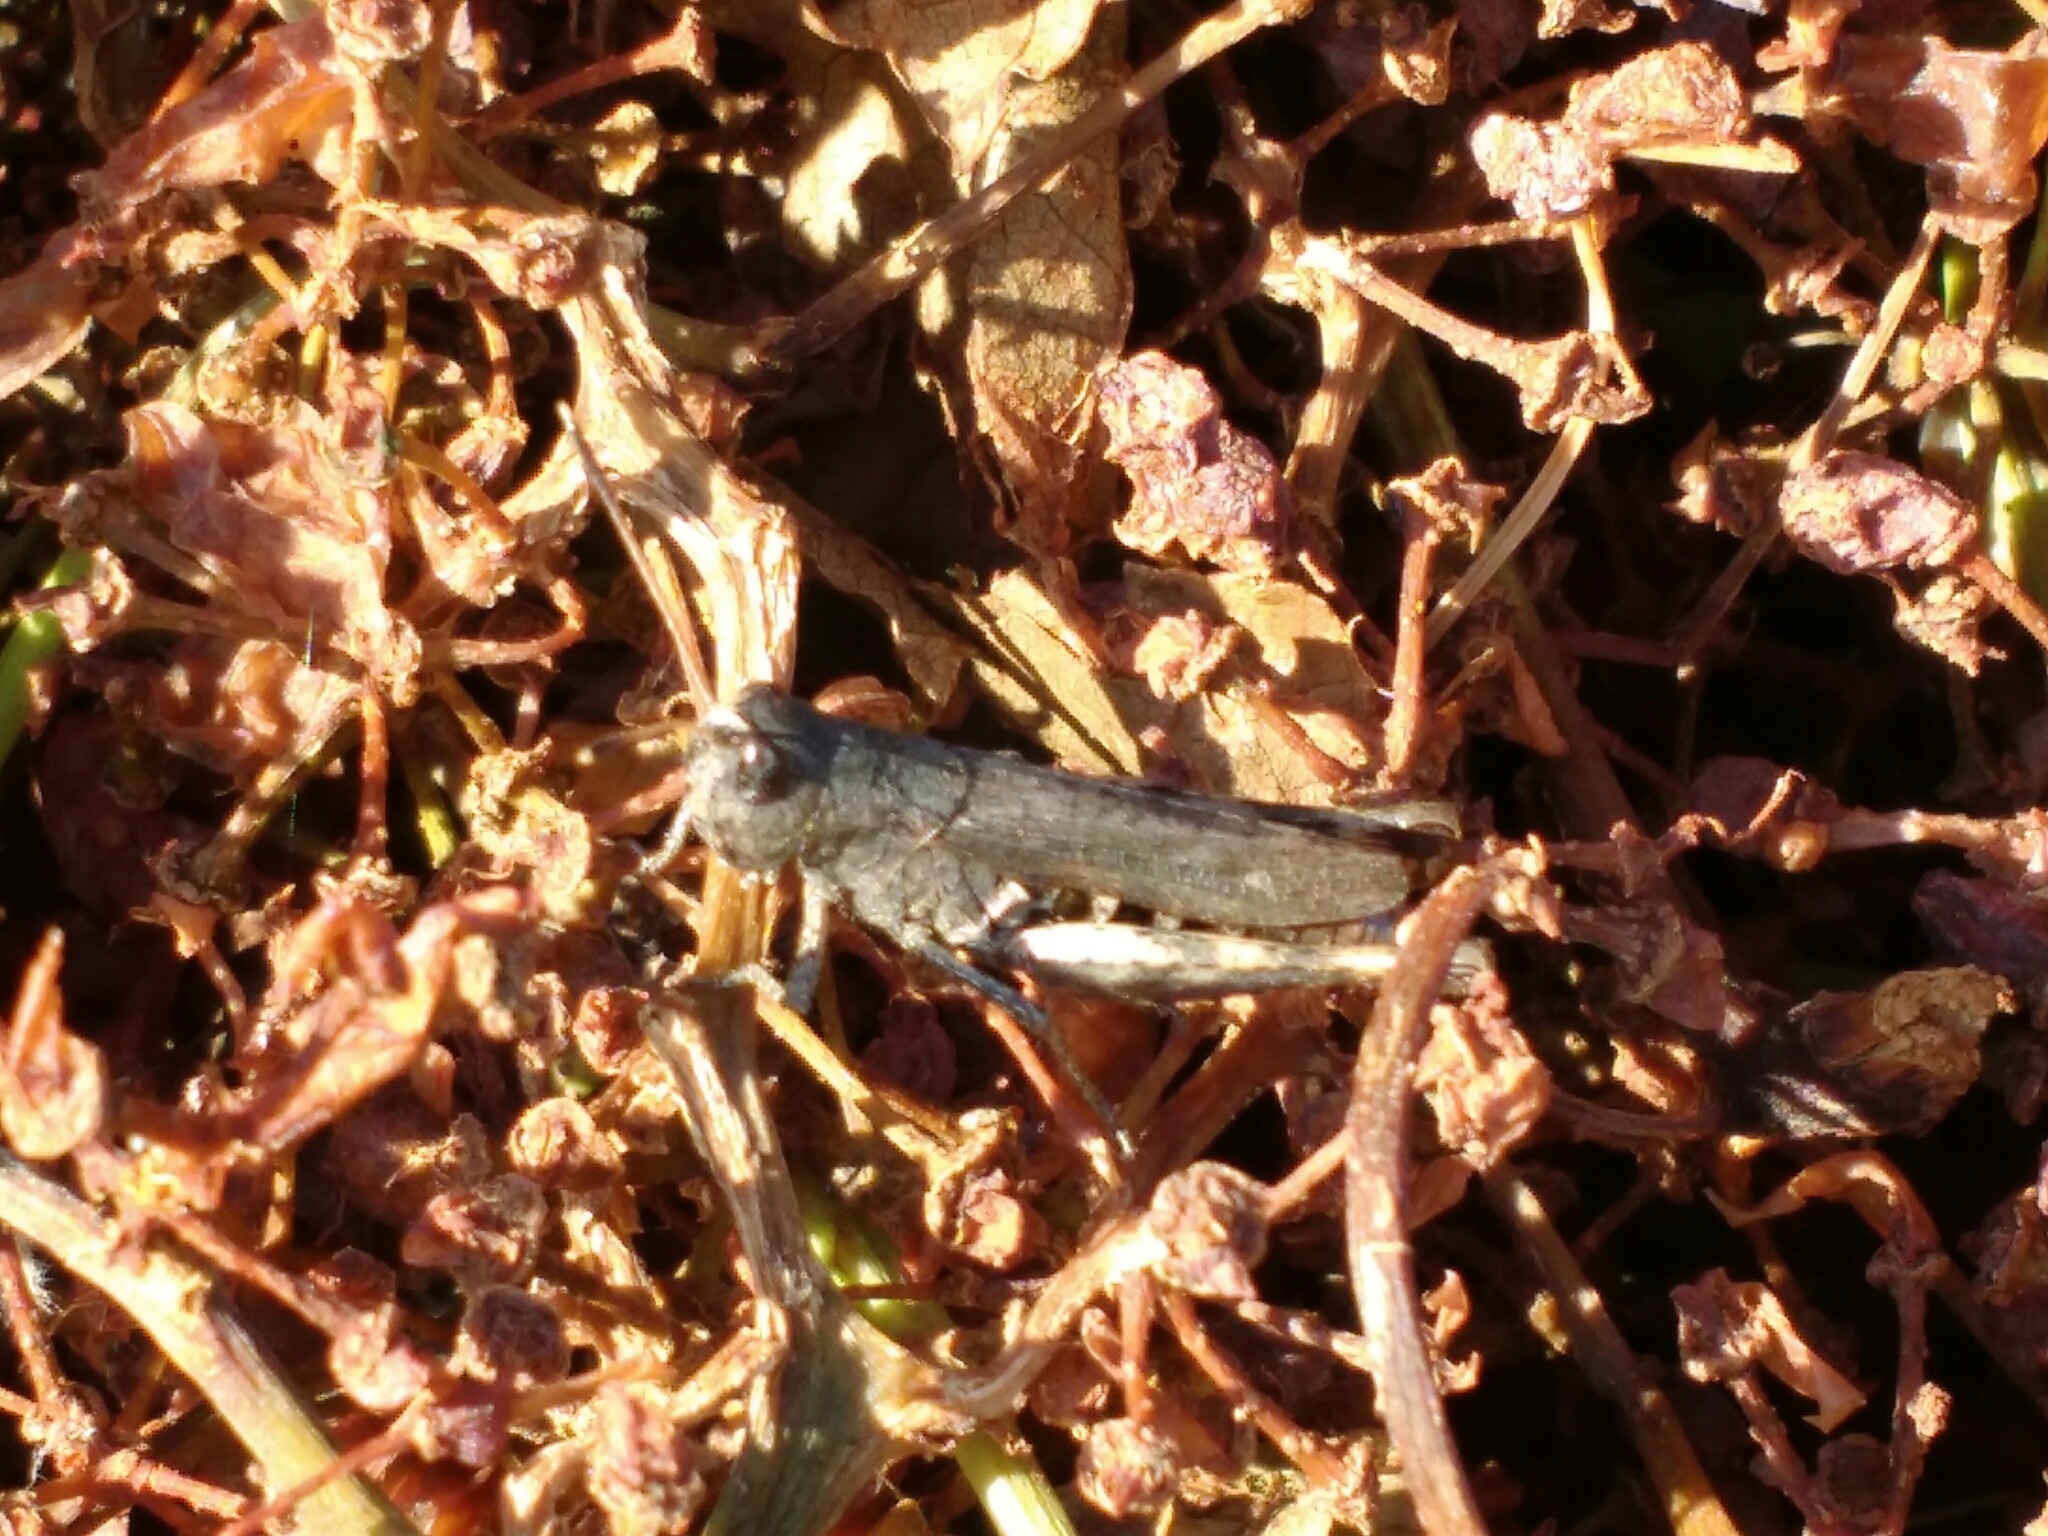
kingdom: Animalia
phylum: Arthropoda
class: Insecta
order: Orthoptera
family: Acrididae
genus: Gomphocerippus
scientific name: Gomphocerippus rufus
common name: Rufous grasshopper
